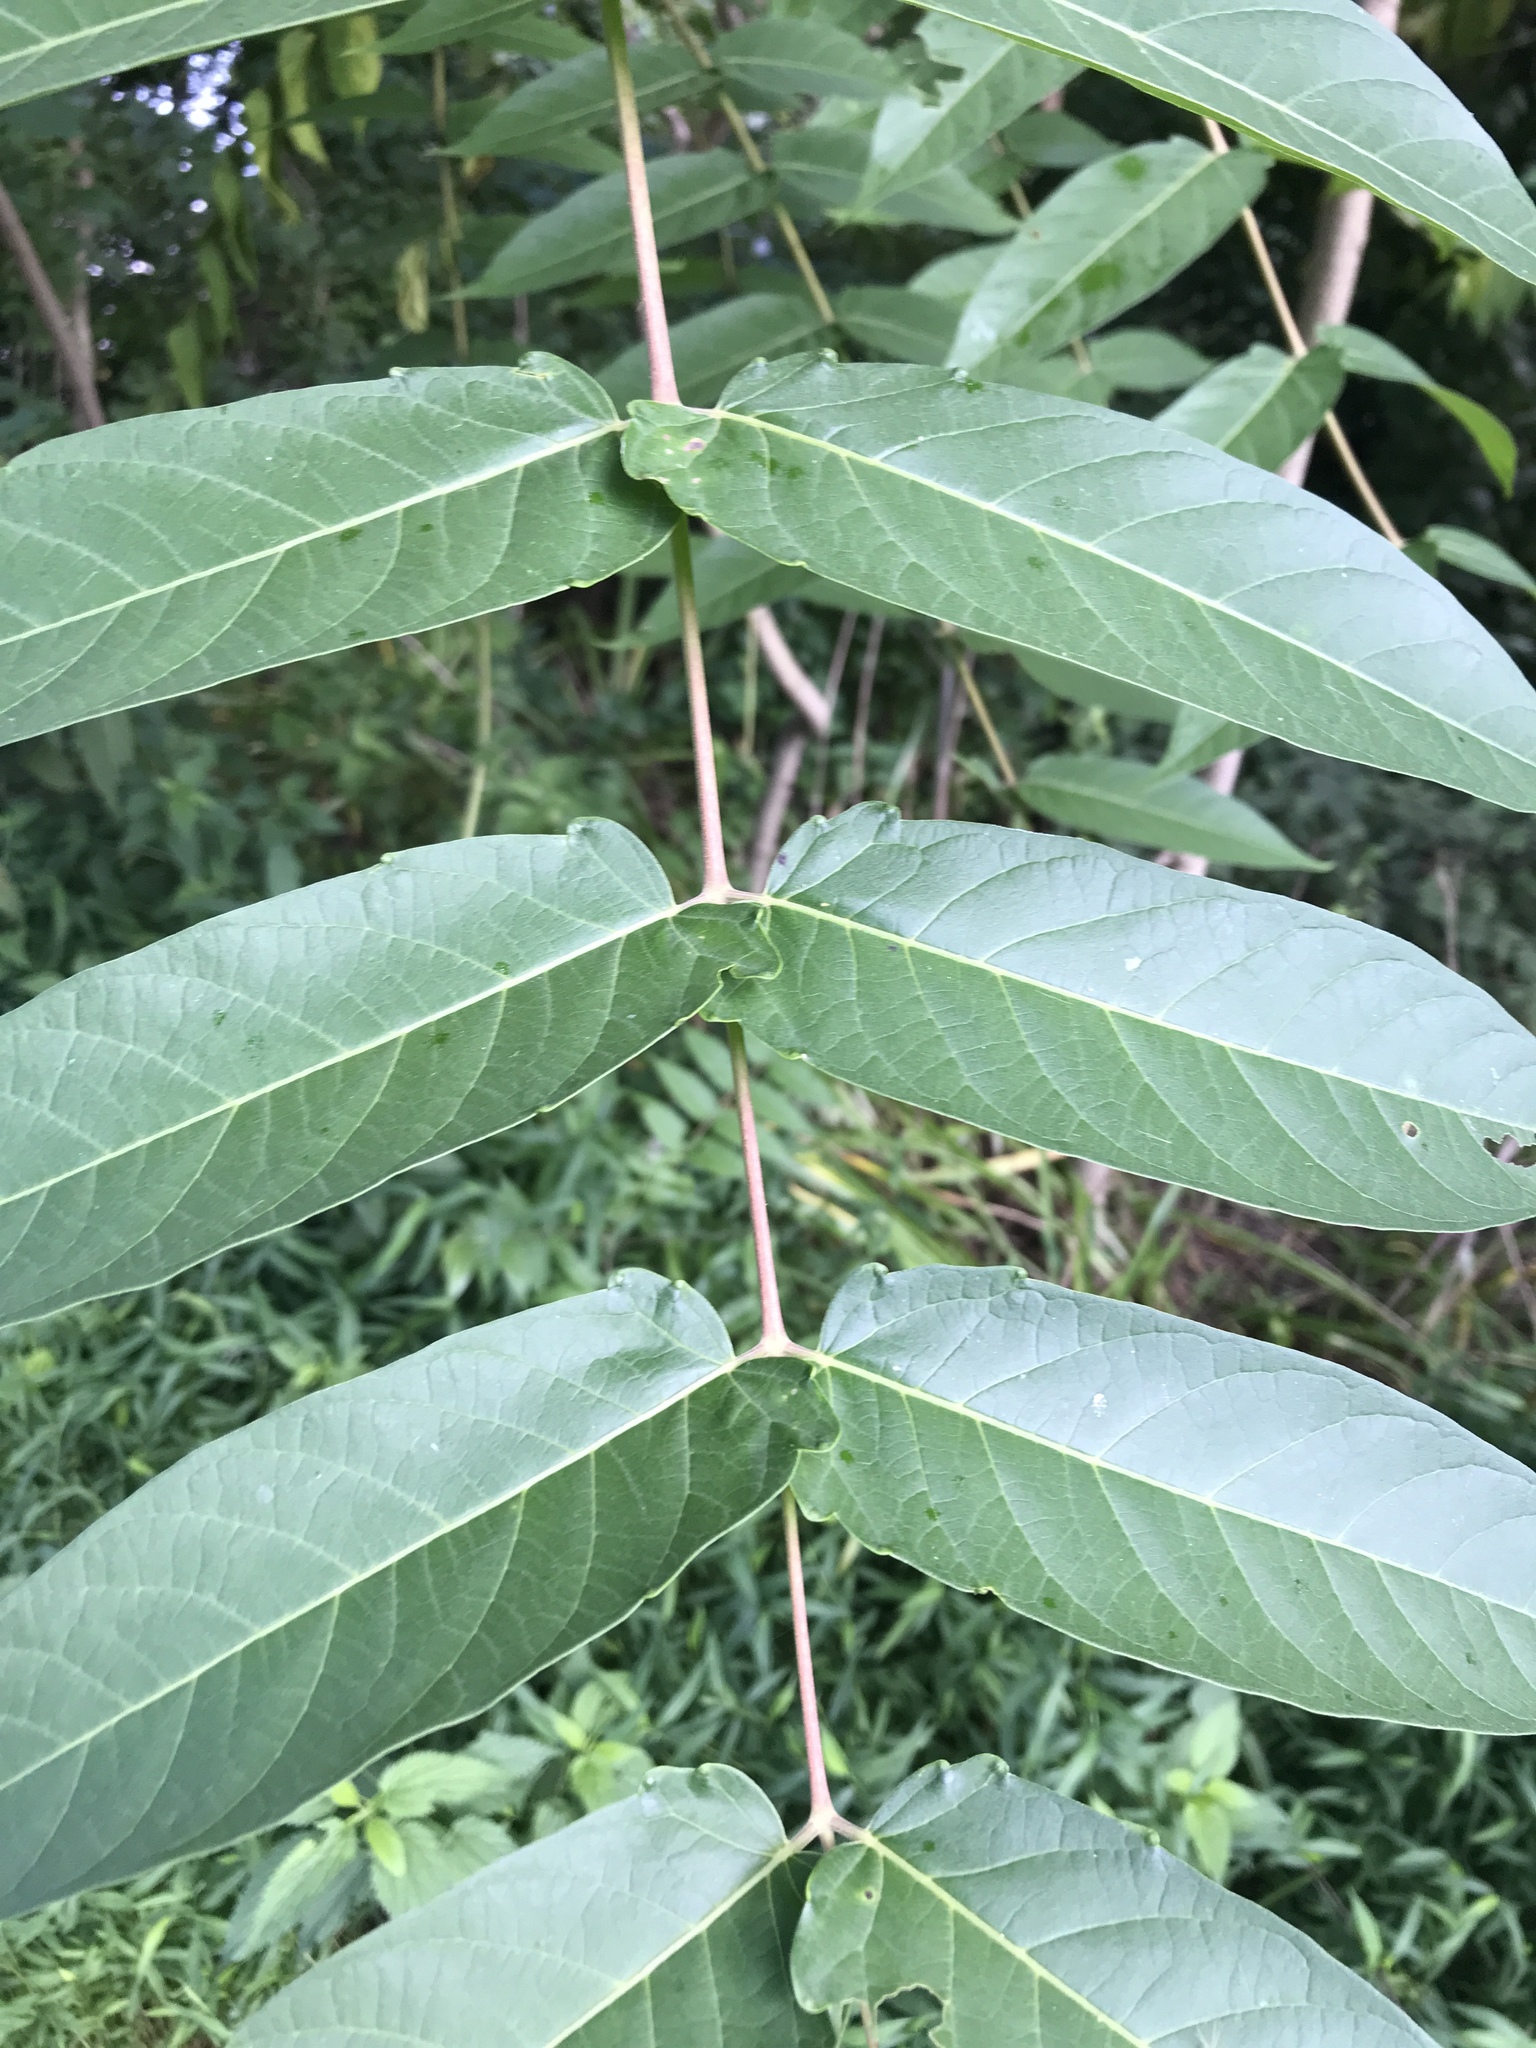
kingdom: Plantae
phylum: Tracheophyta
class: Magnoliopsida
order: Sapindales
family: Simaroubaceae
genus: Ailanthus
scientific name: Ailanthus altissima
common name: Tree-of-heaven
